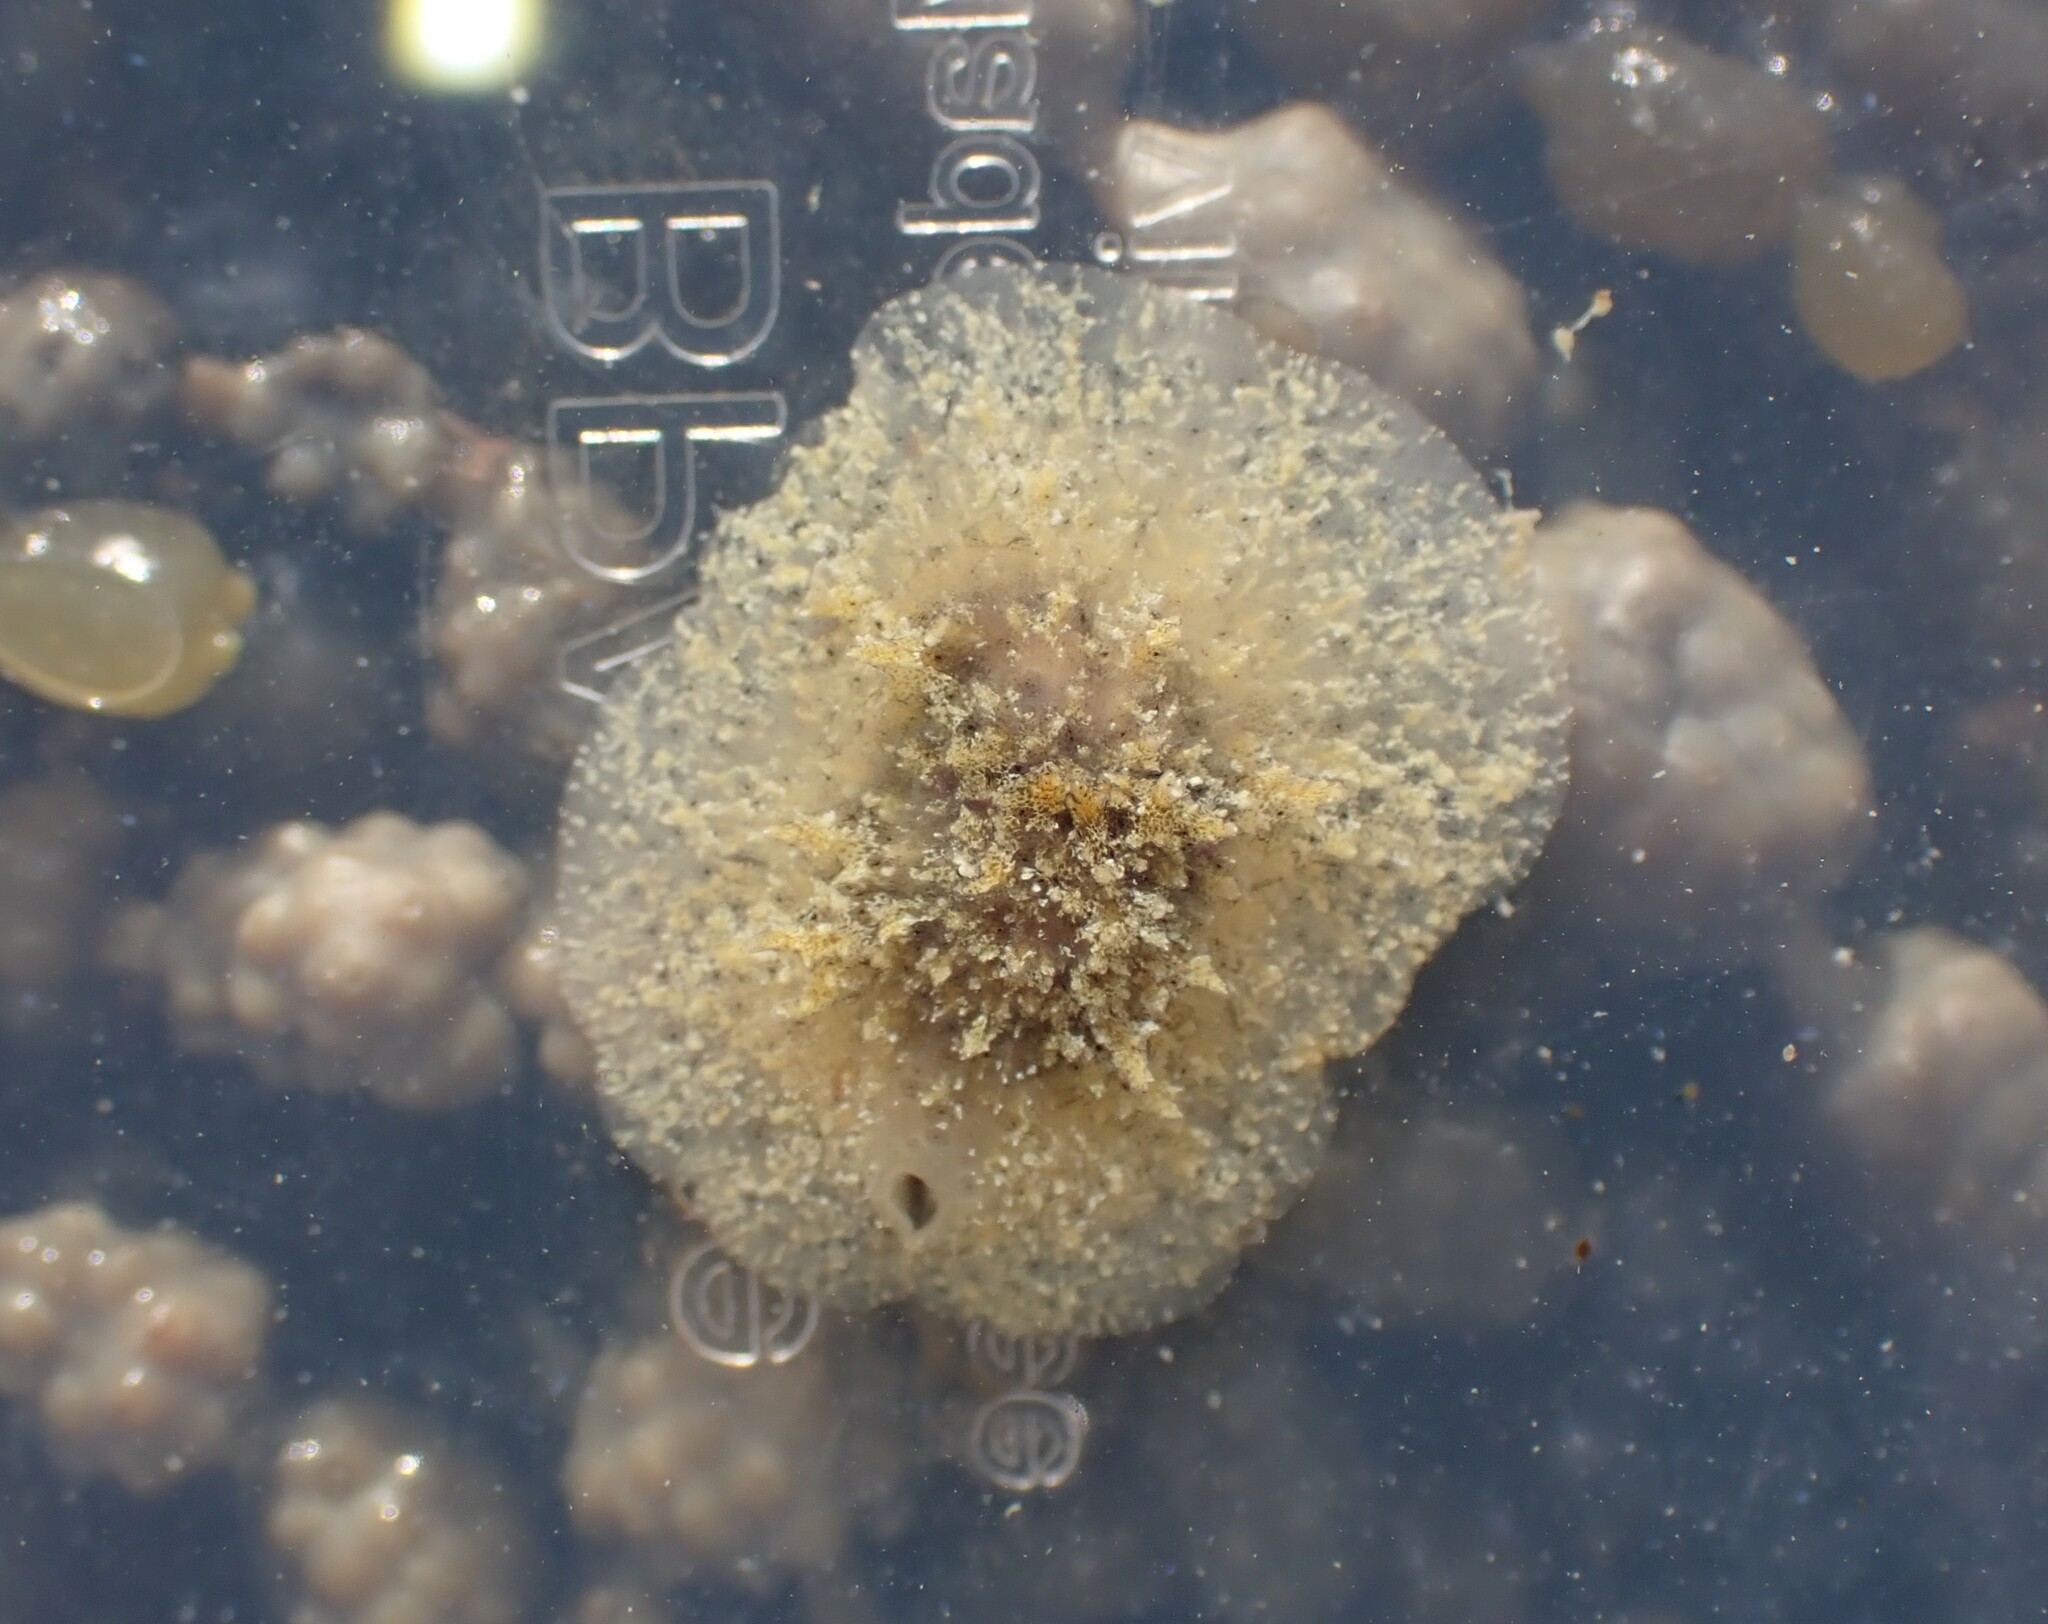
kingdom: Animalia
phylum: Mollusca
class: Gastropoda
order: Littorinimorpha
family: Velutinidae
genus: Lamellaria
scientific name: Lamellaria ophione
